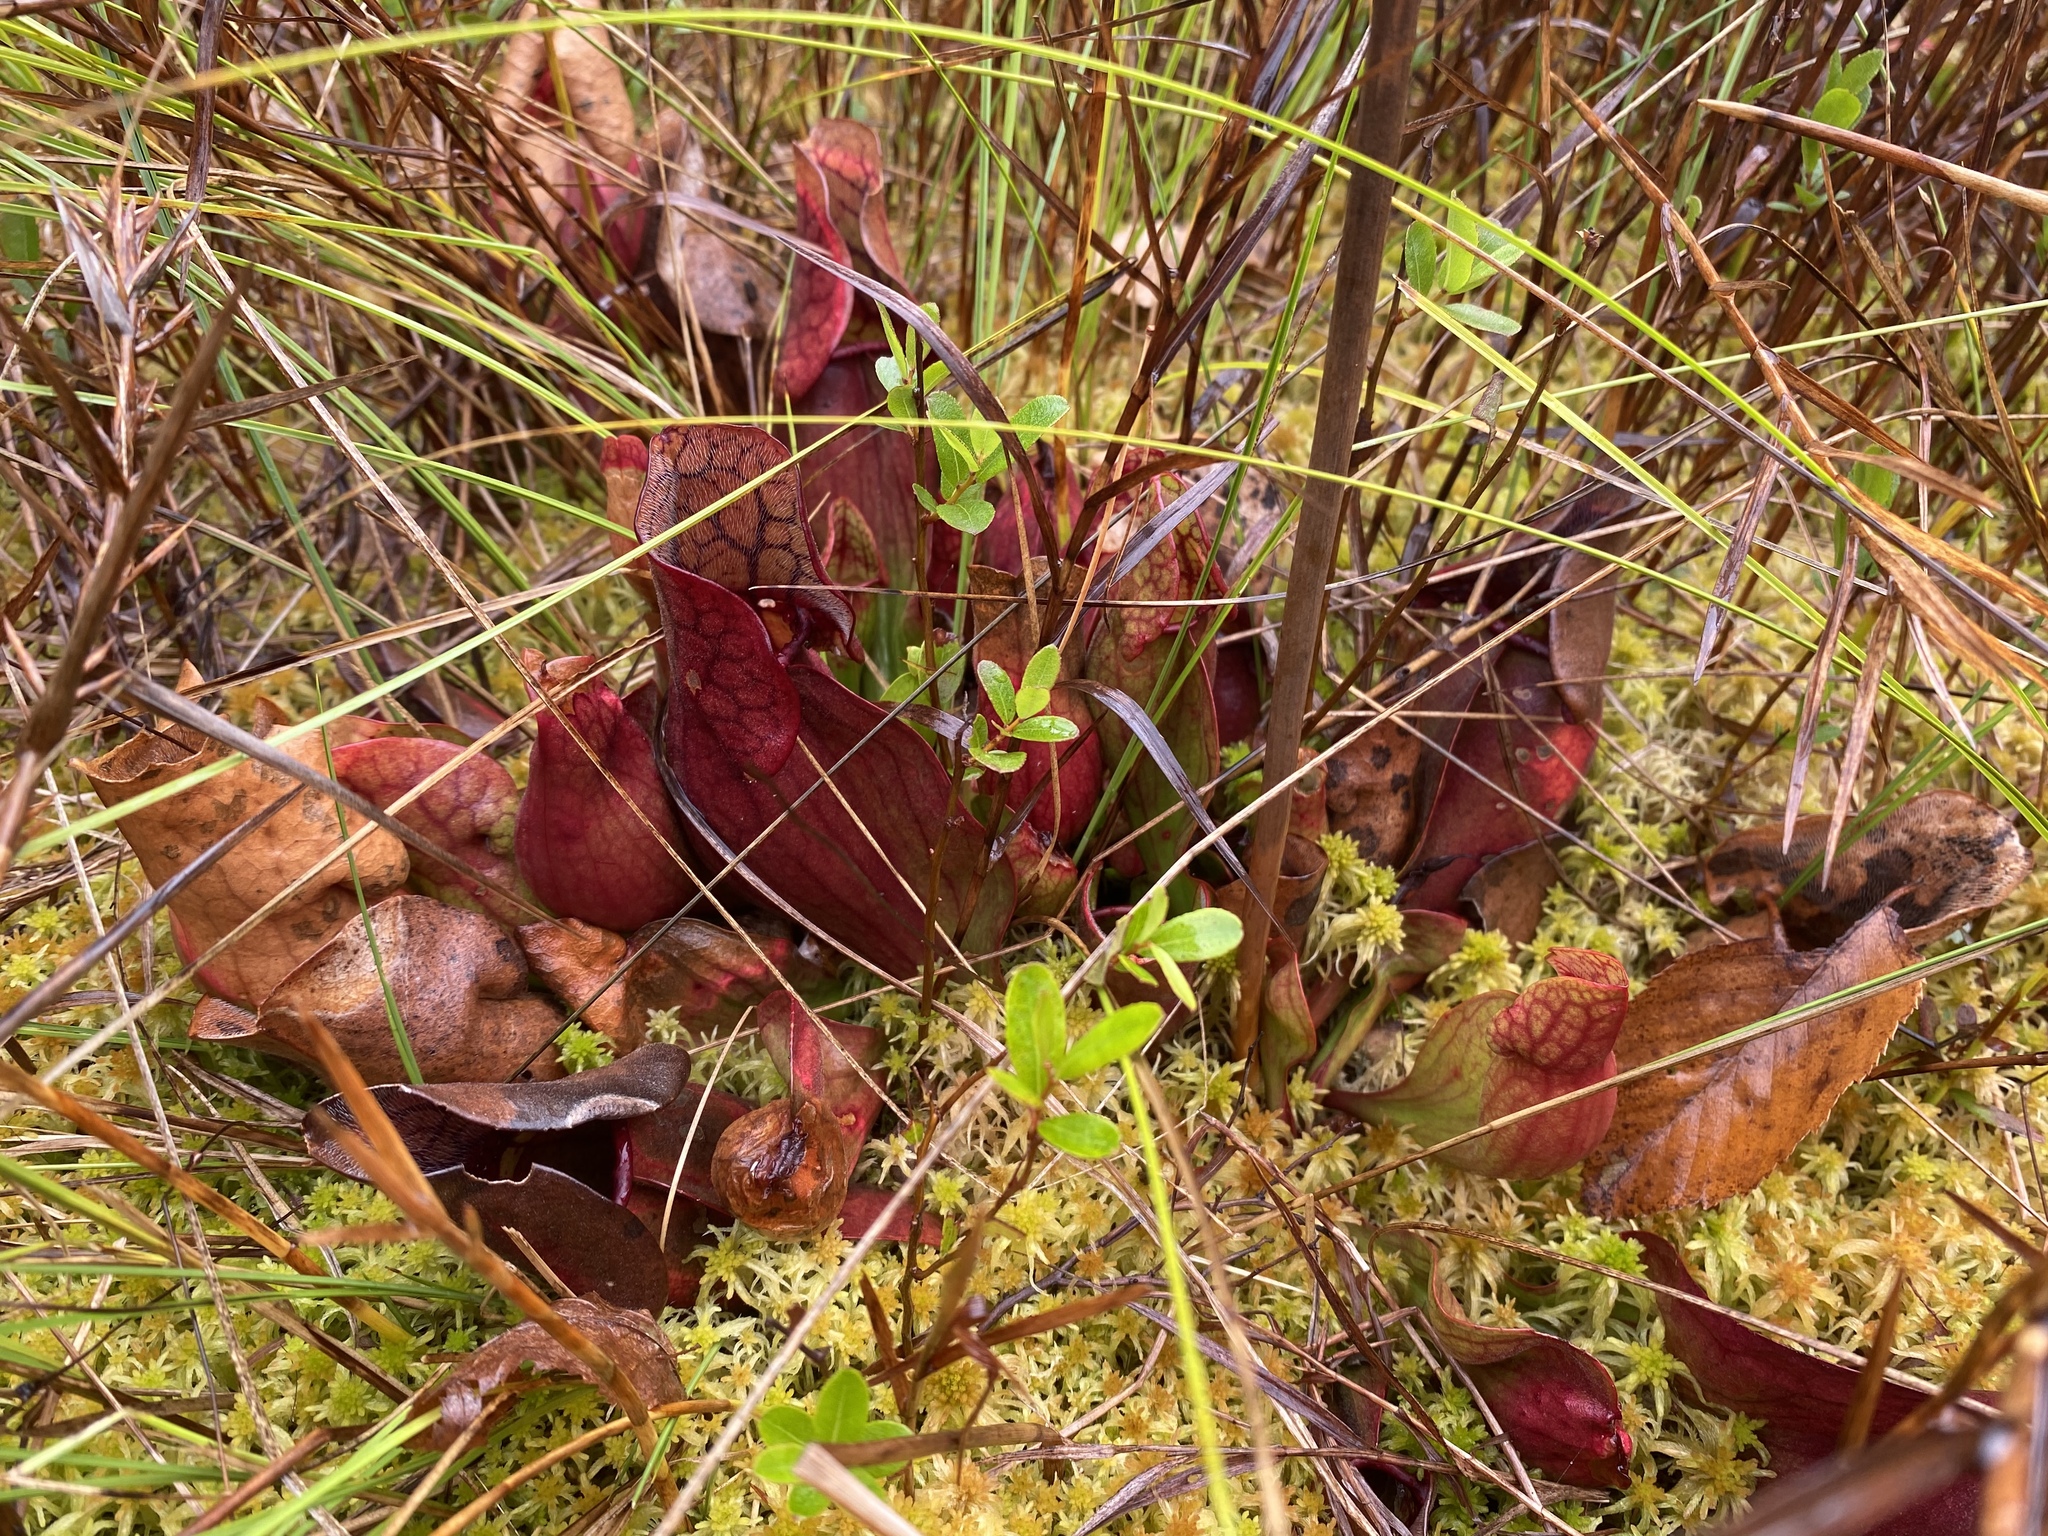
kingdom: Plantae
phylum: Tracheophyta
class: Magnoliopsida
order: Ericales
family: Sarraceniaceae
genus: Sarracenia
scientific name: Sarracenia purpurea
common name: Pitcherplant
